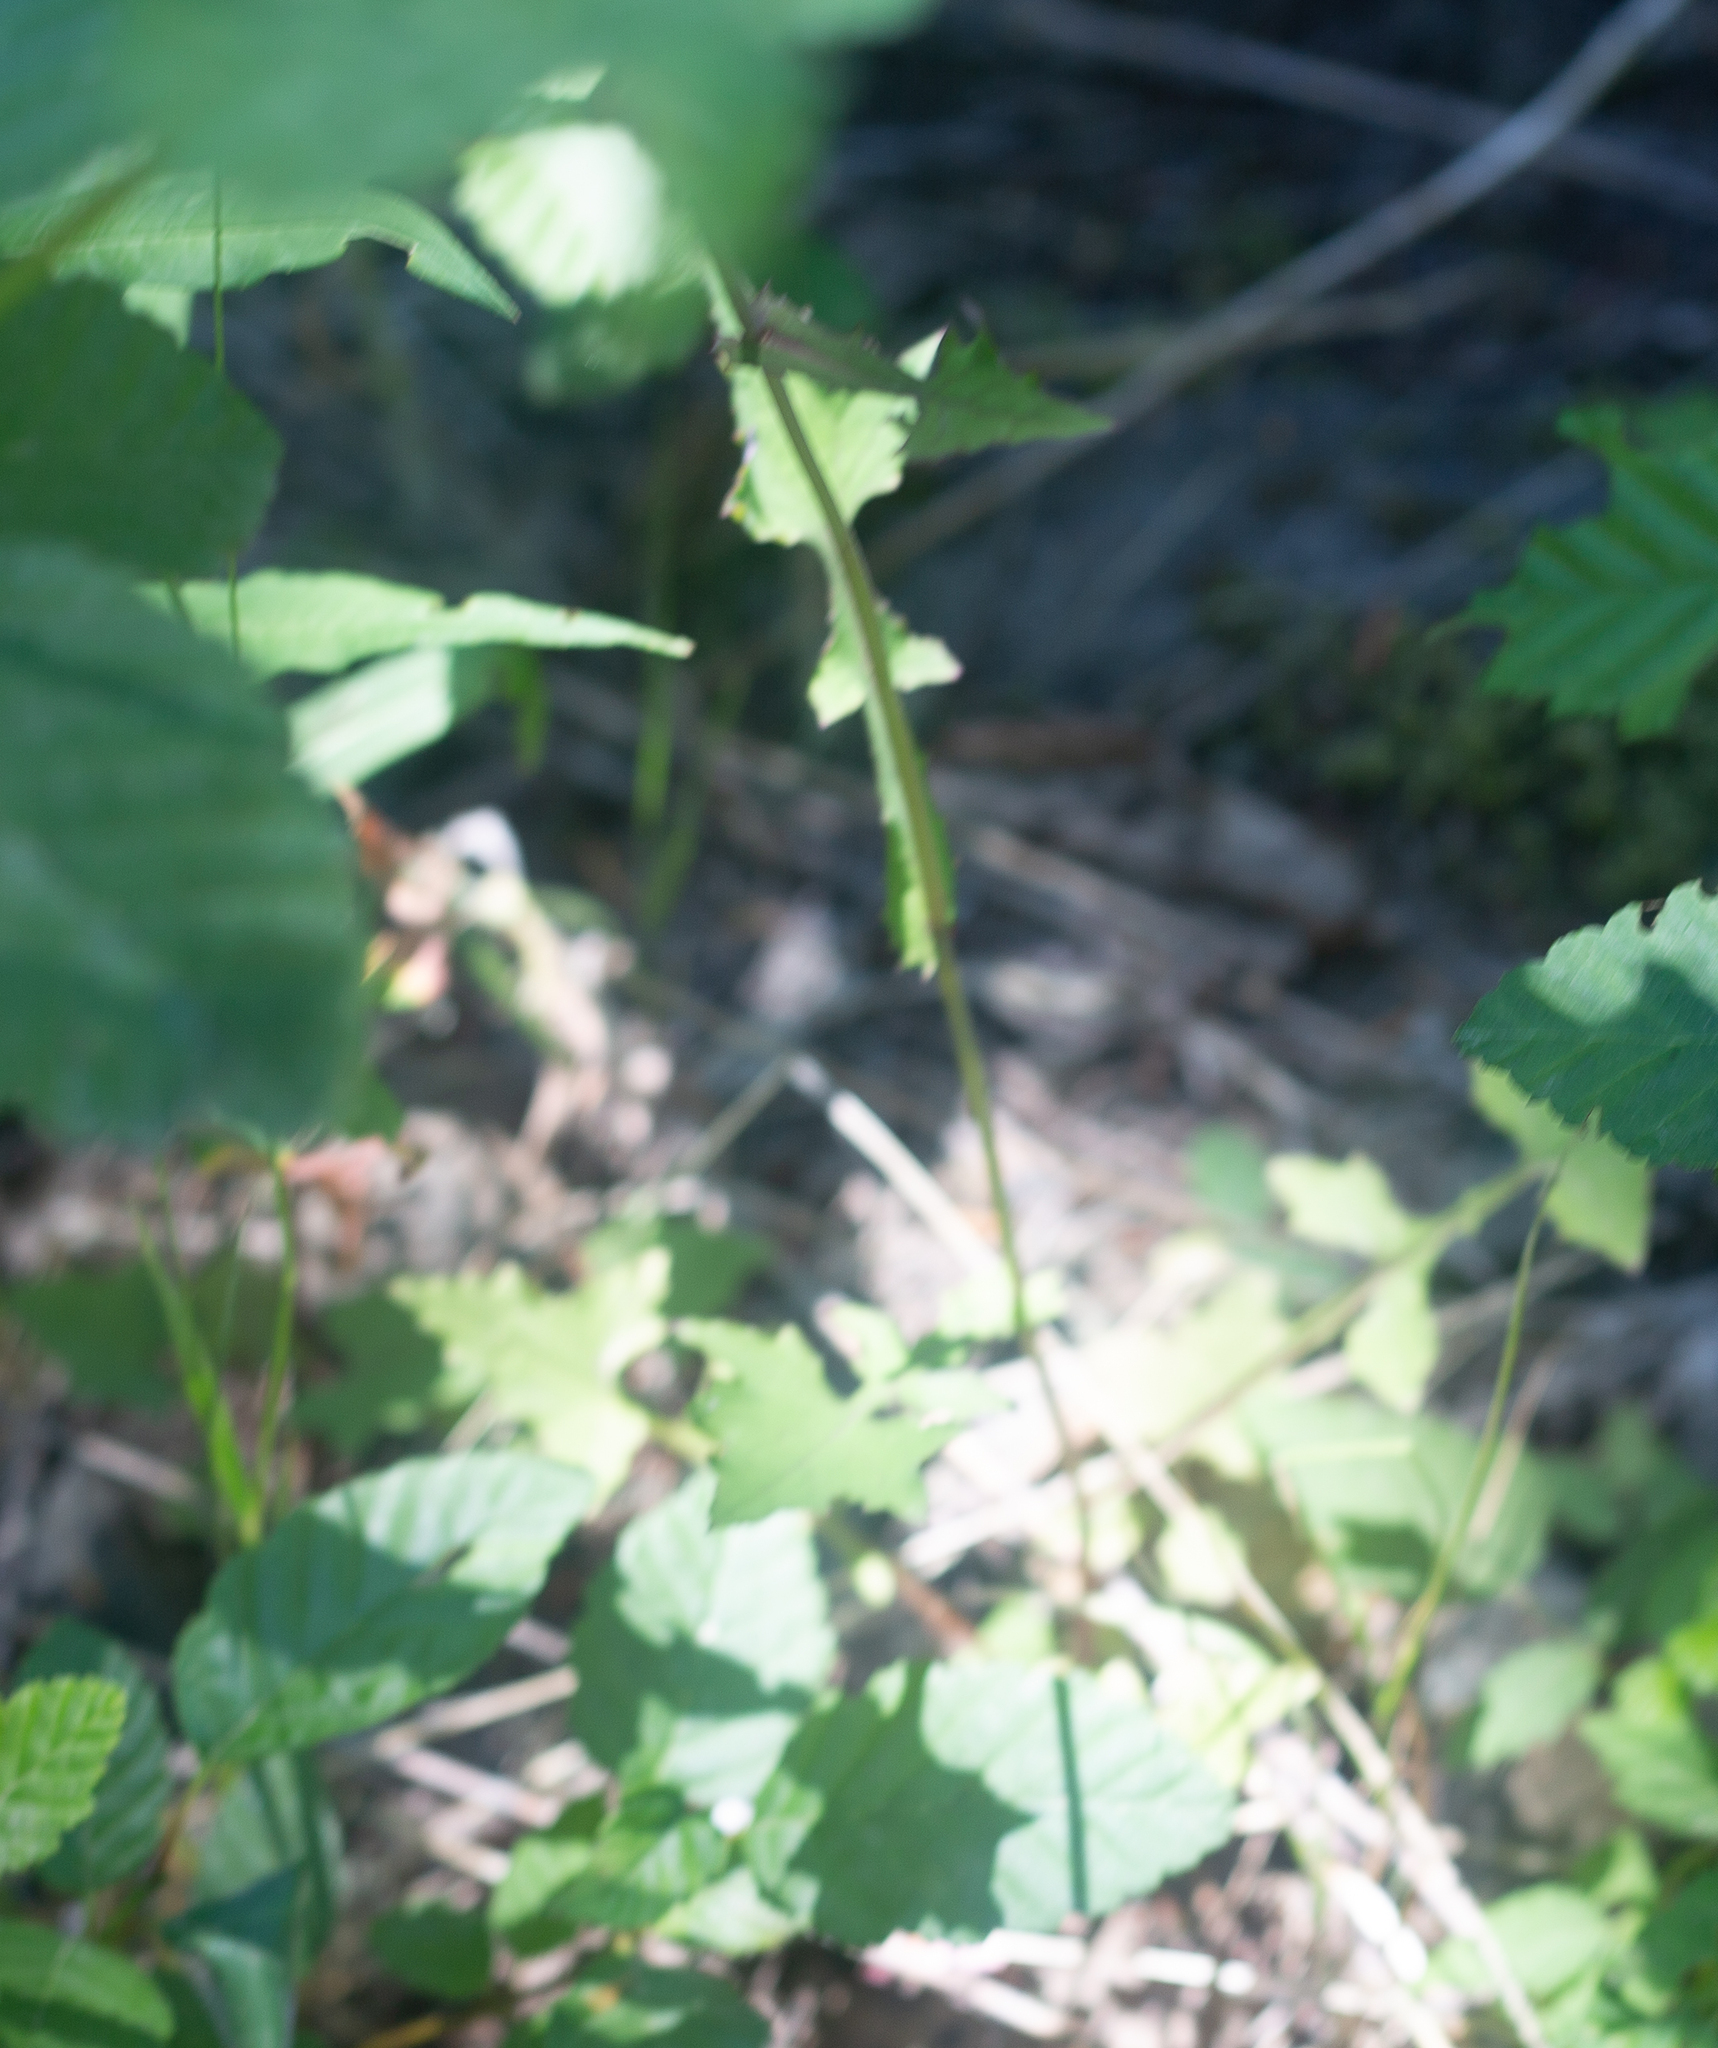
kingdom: Plantae
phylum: Tracheophyta
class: Magnoliopsida
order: Asterales
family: Asteraceae
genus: Mycelis
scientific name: Mycelis muralis
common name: Wall lettuce
